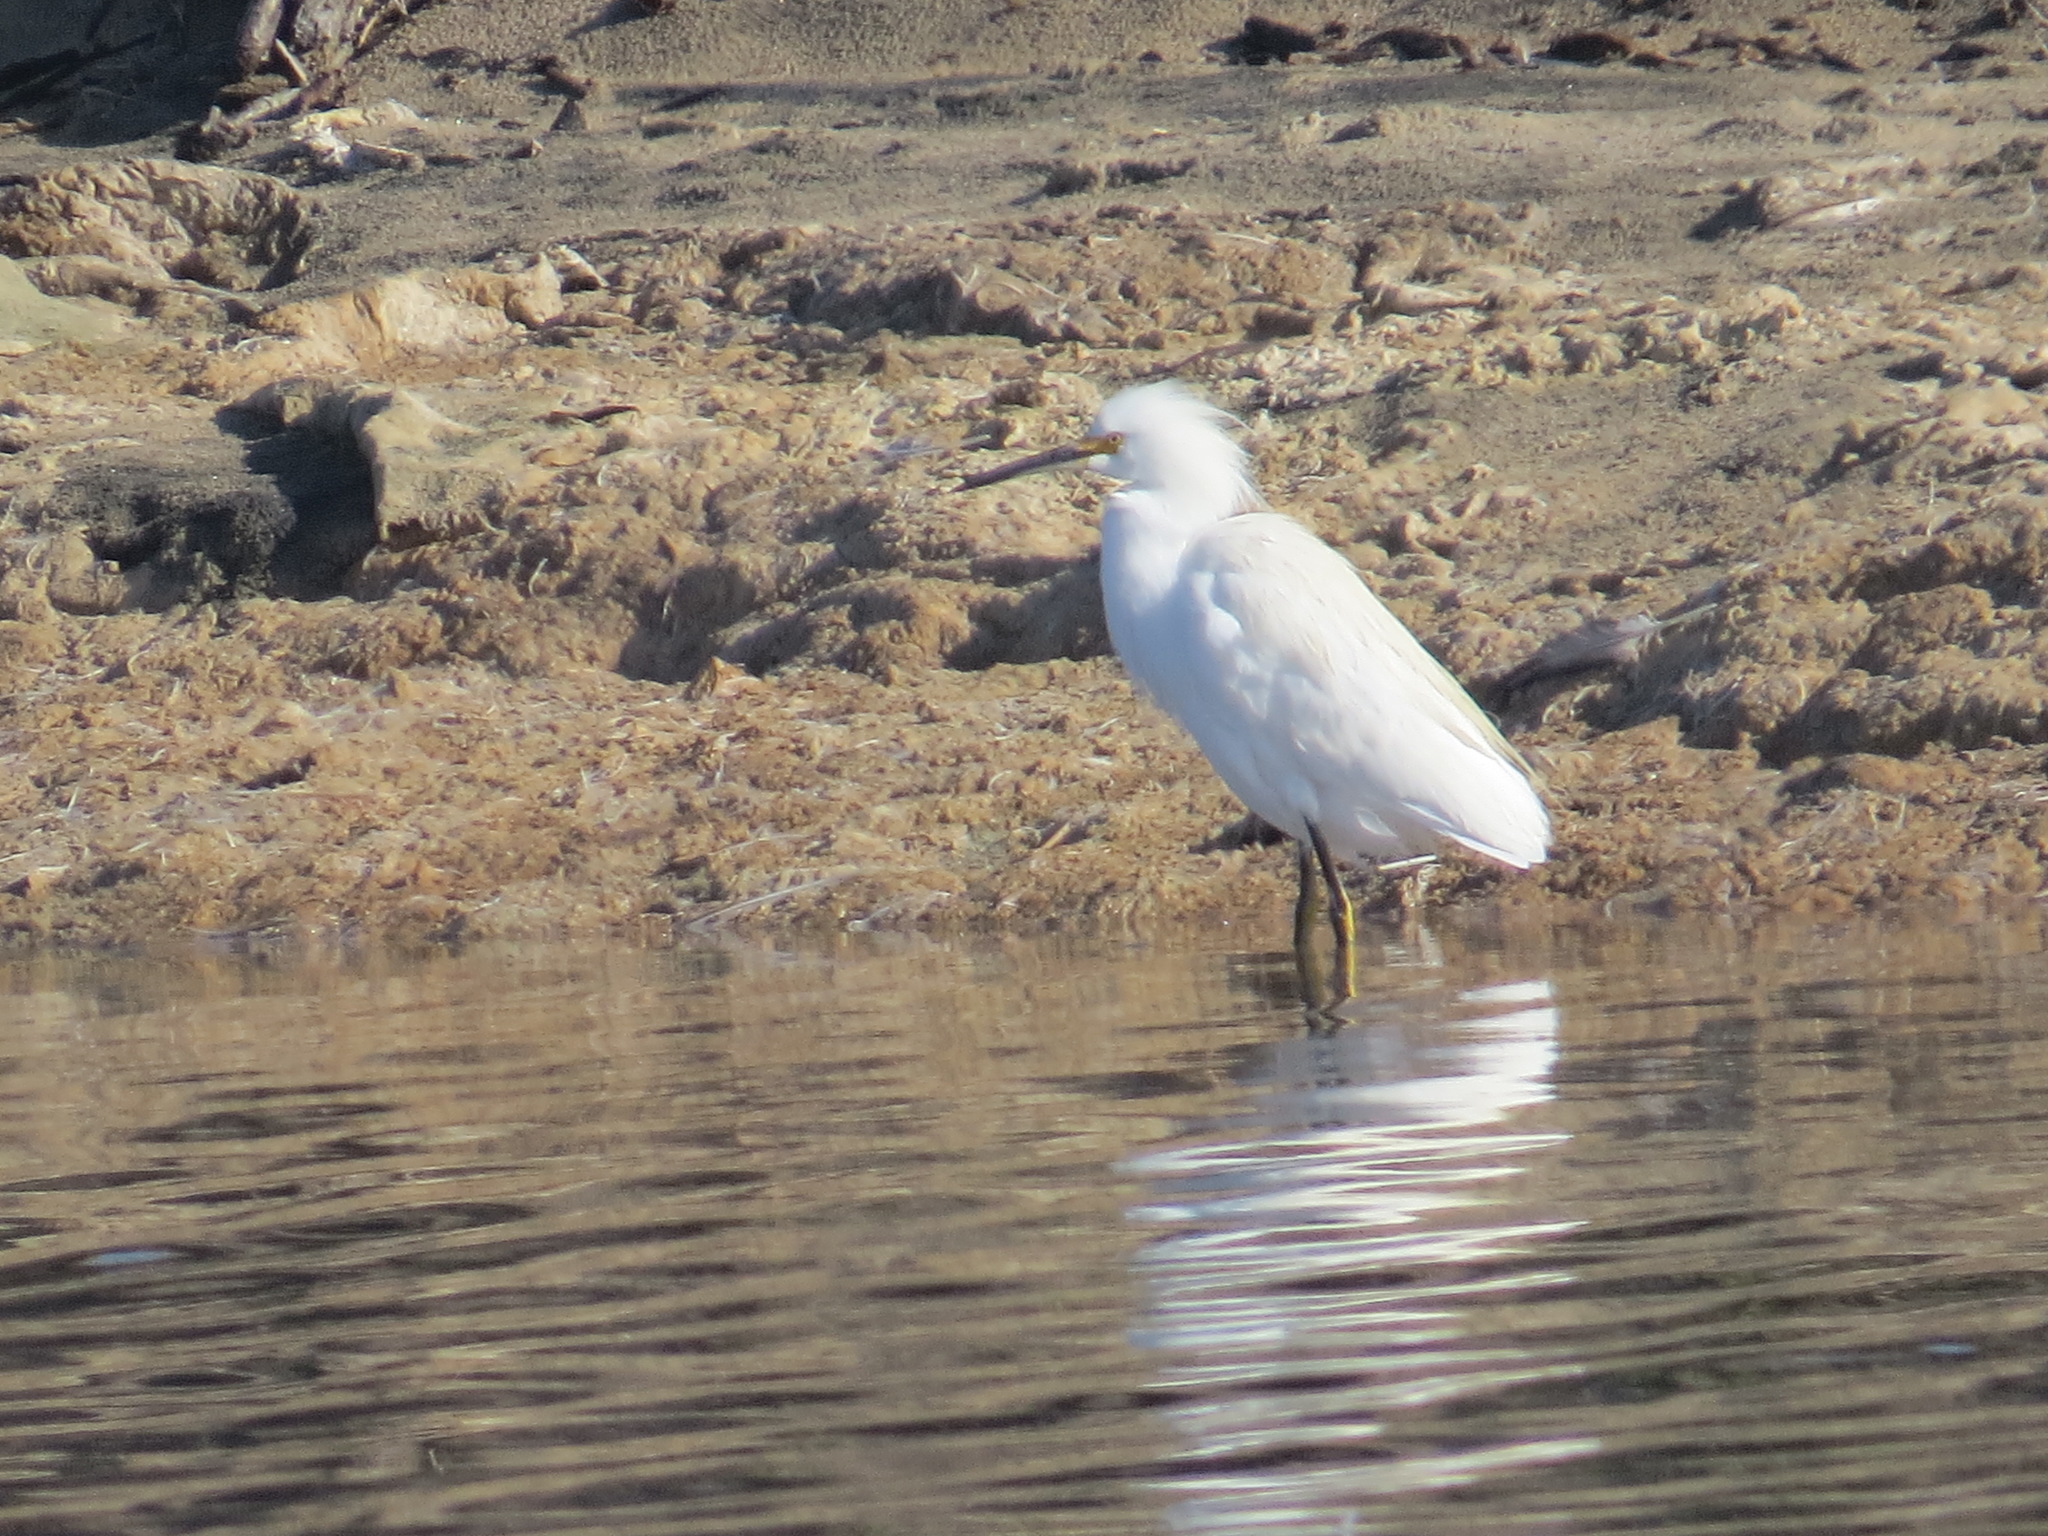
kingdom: Animalia
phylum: Chordata
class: Aves
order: Pelecaniformes
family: Ardeidae
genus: Egretta
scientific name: Egretta thula
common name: Snowy egret
